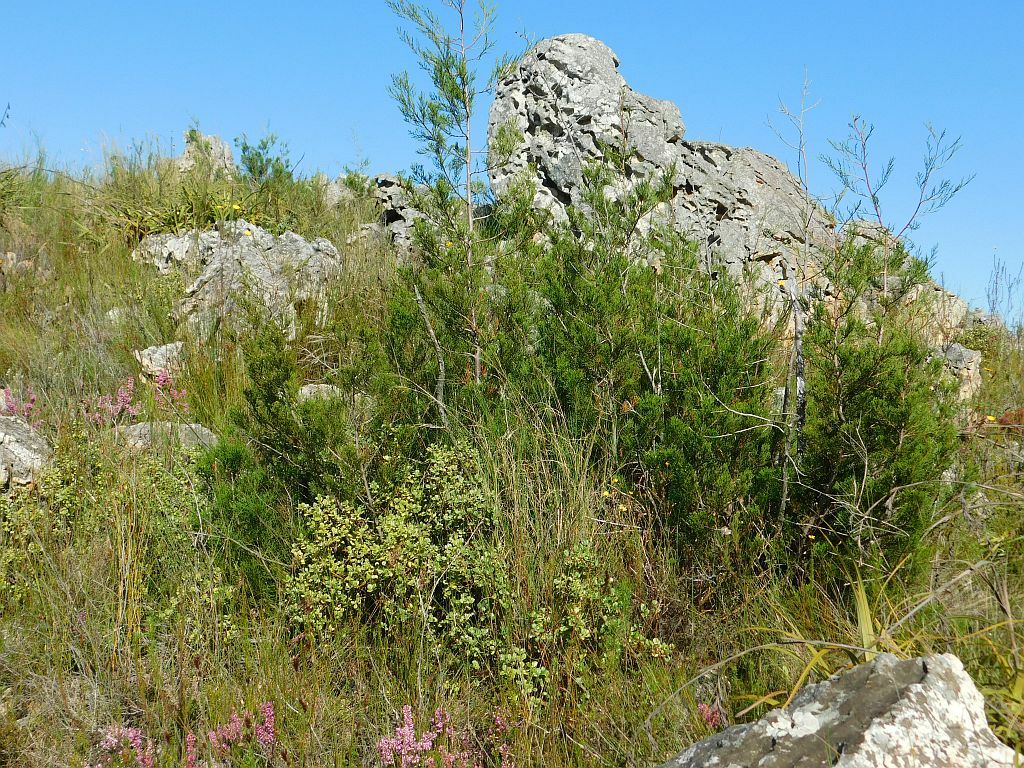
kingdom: Plantae
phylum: Tracheophyta
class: Pinopsida
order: Pinales
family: Cupressaceae
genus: Widdringtonia
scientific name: Widdringtonia nodiflora
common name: Cape cypress
